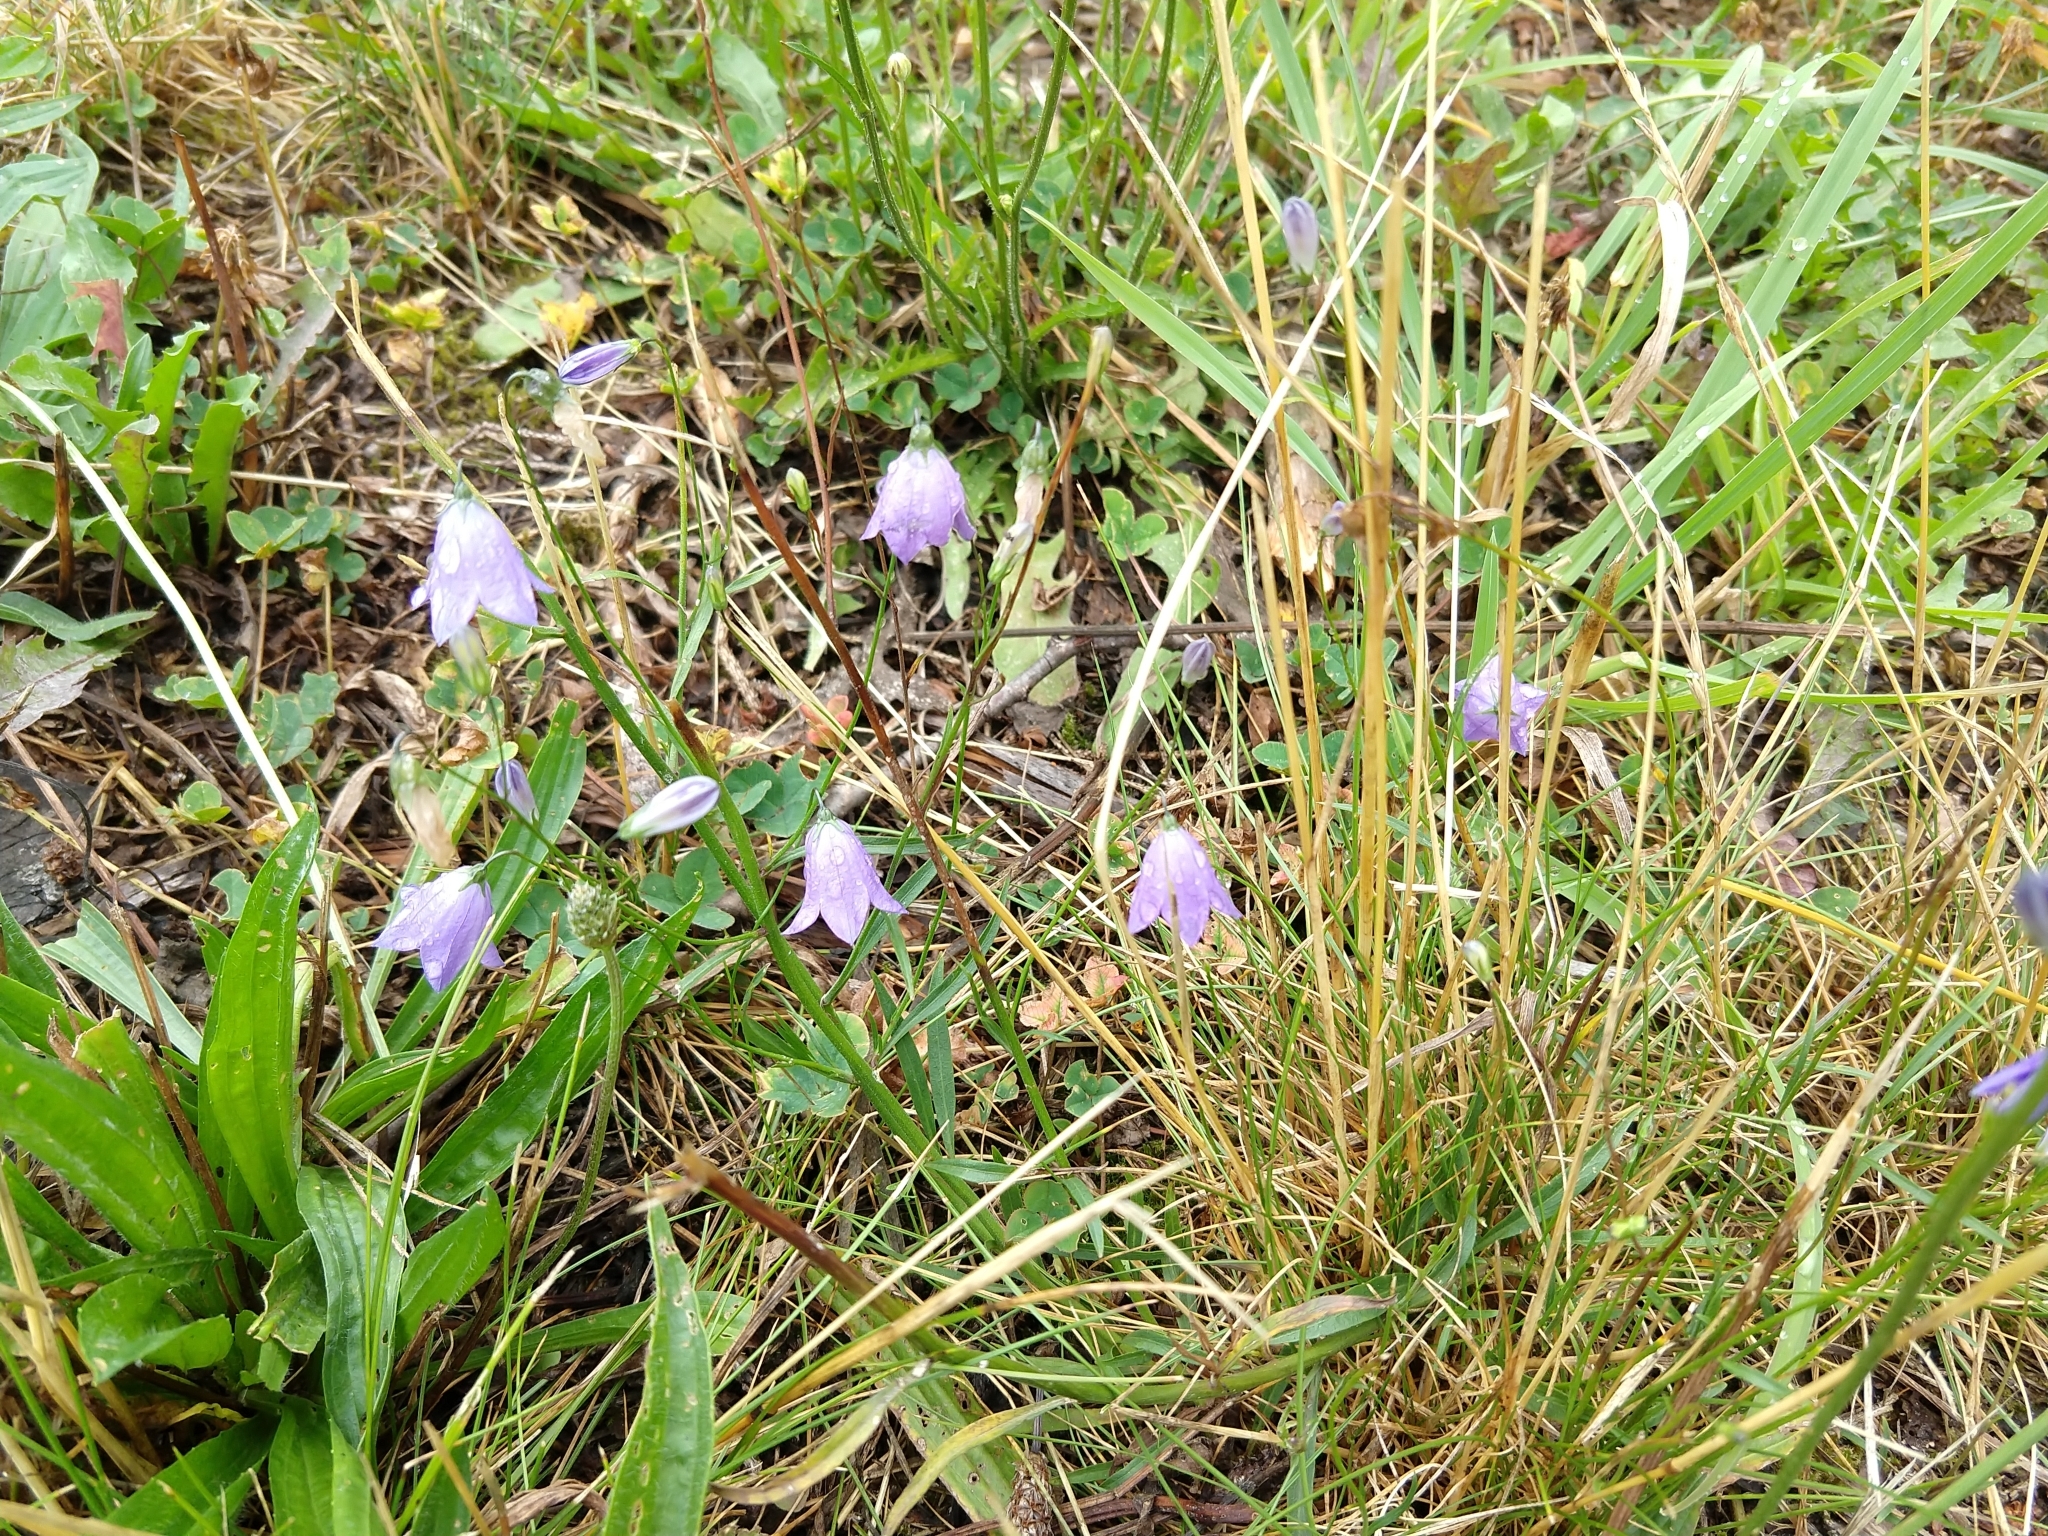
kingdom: Plantae
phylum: Tracheophyta
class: Magnoliopsida
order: Asterales
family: Campanulaceae
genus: Campanula
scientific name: Campanula rotundifolia
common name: Harebell
